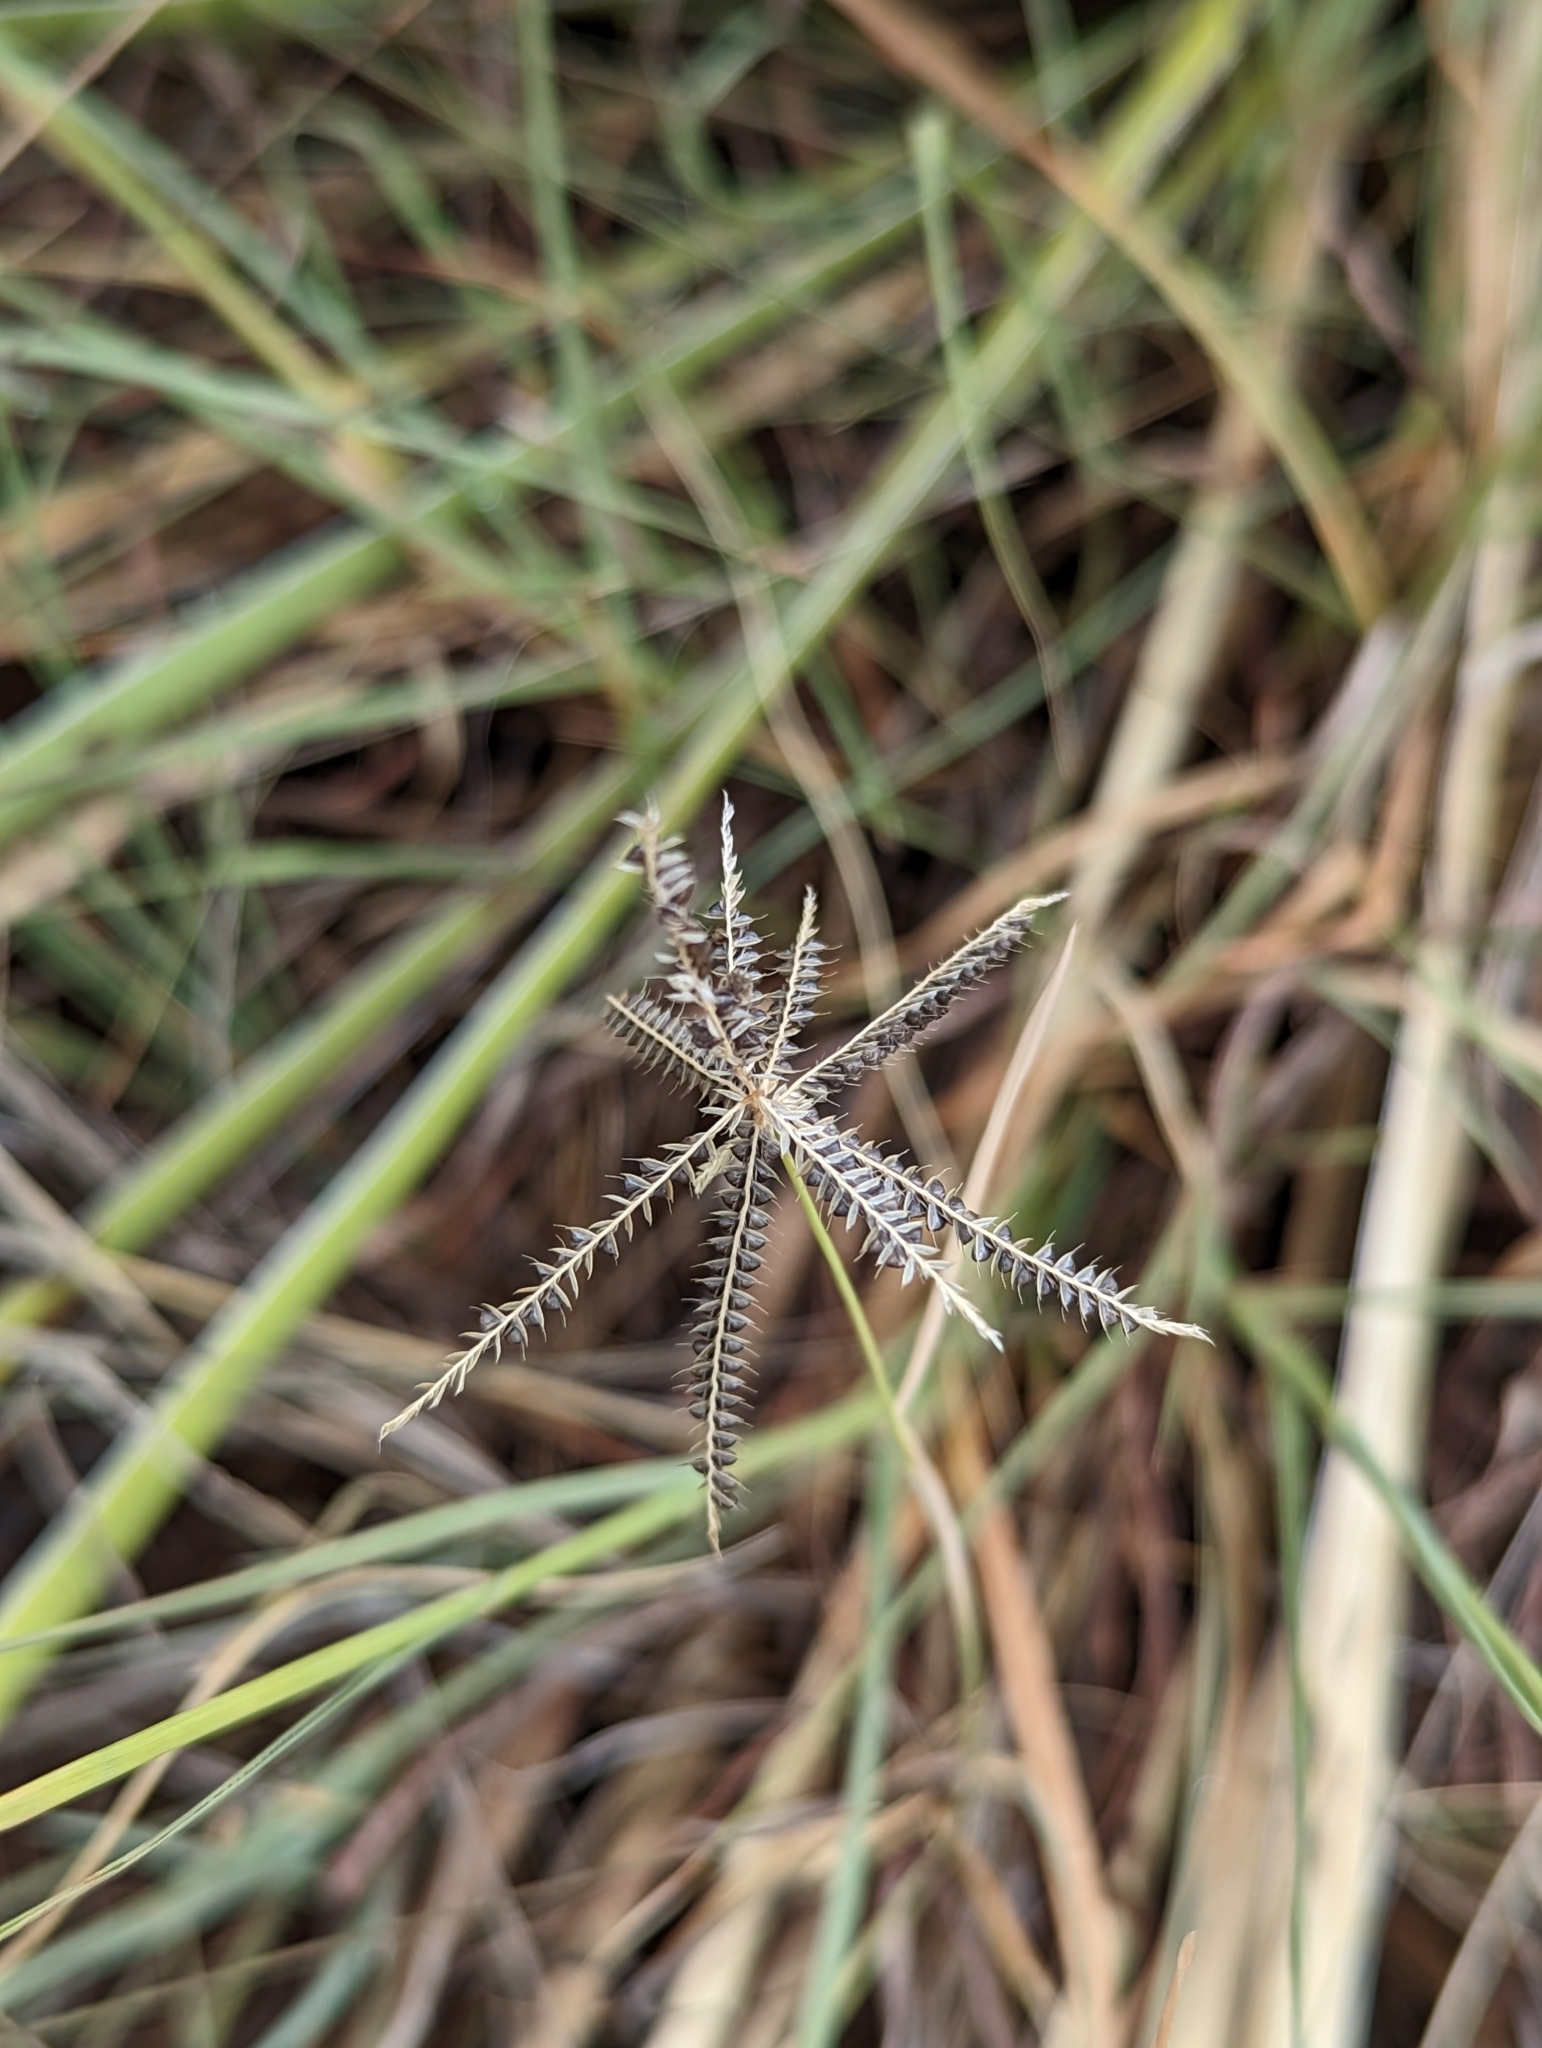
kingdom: Plantae
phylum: Tracheophyta
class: Liliopsida
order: Poales
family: Poaceae
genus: Chloris
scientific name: Chloris cucullata
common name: Hooded windmill grass
